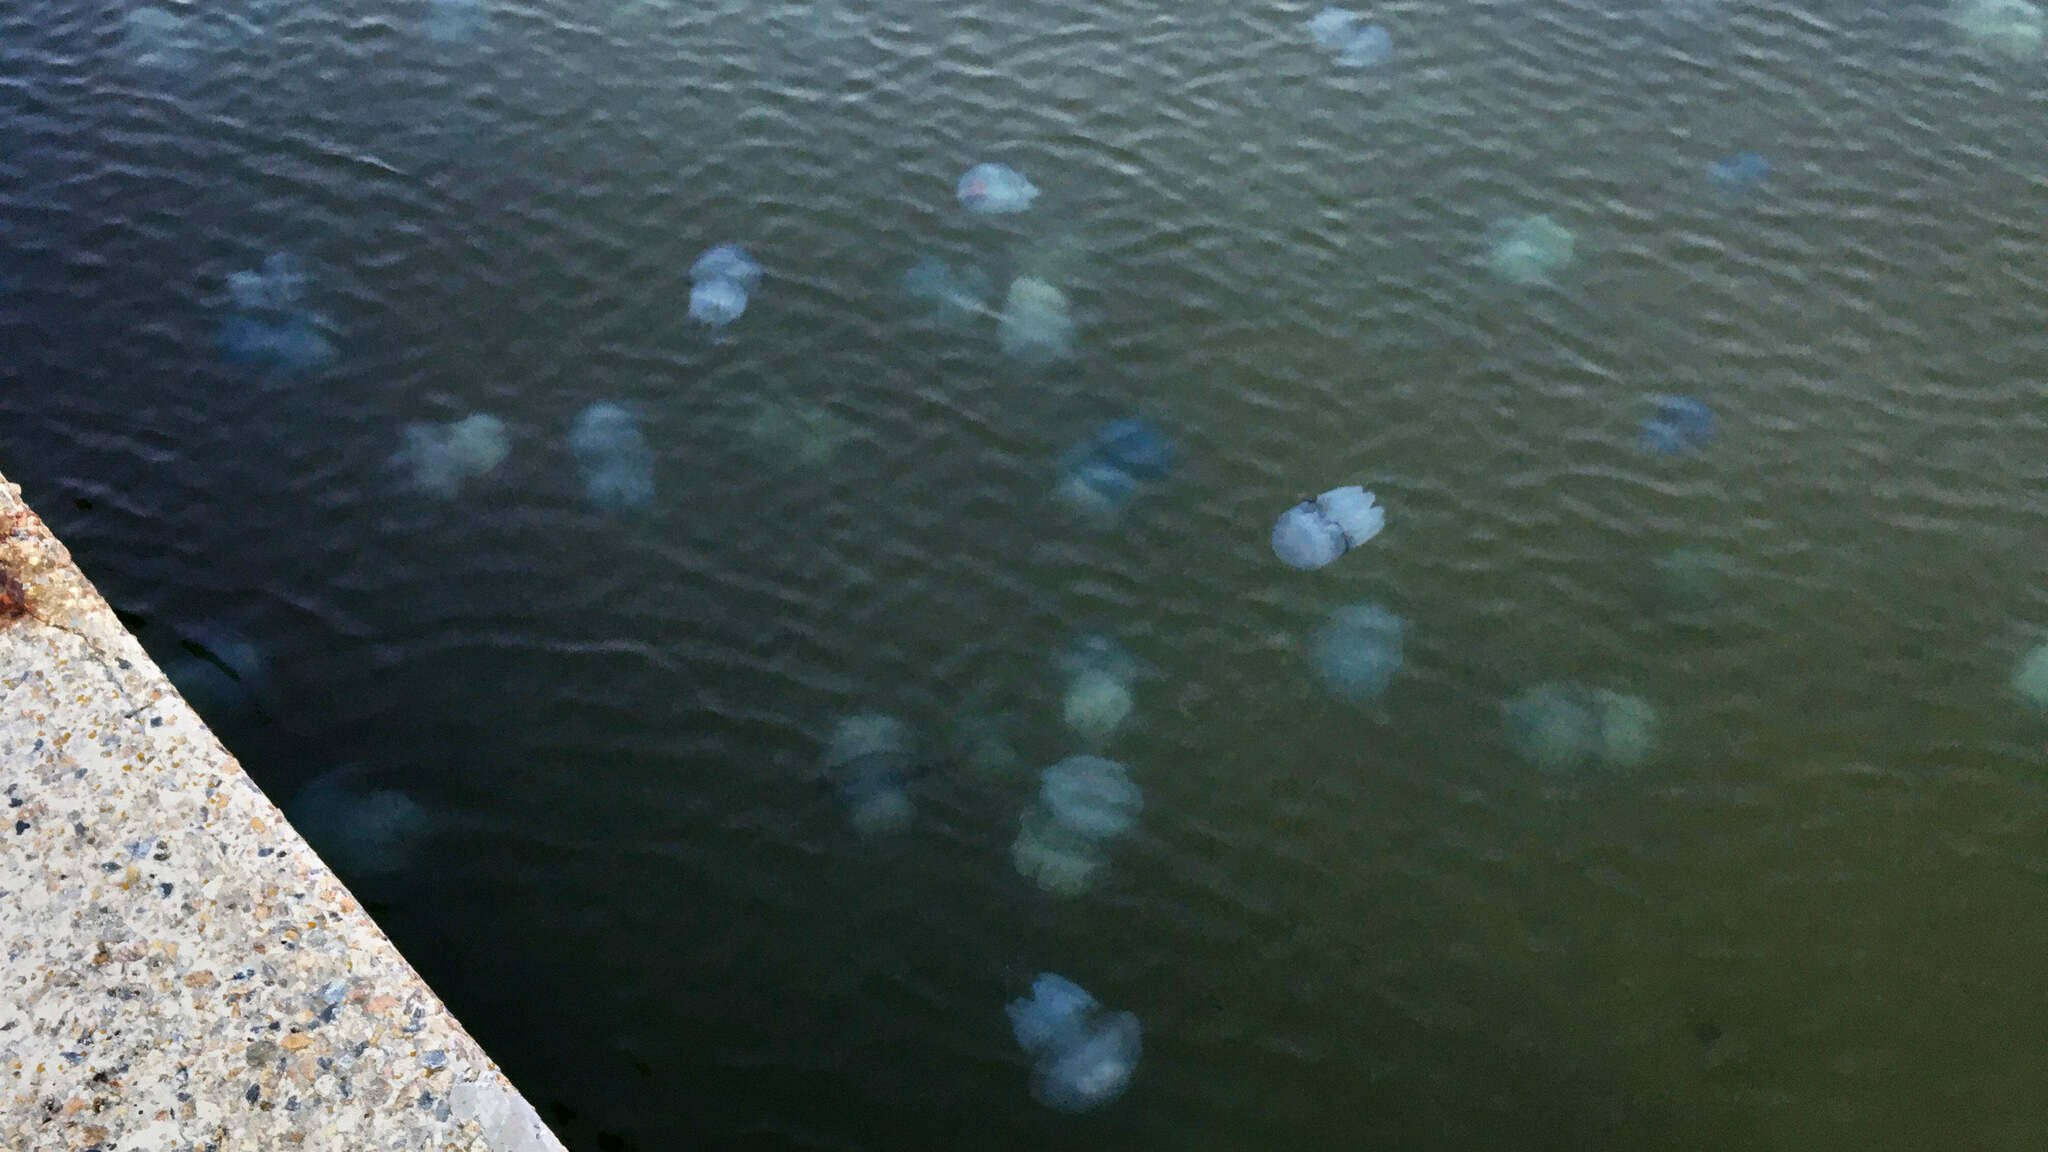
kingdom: Animalia
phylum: Cnidaria
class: Scyphozoa
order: Rhizostomeae
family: Rhizostomatidae
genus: Rhizostoma
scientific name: Rhizostoma pulmo
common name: Barrel jellyfish
